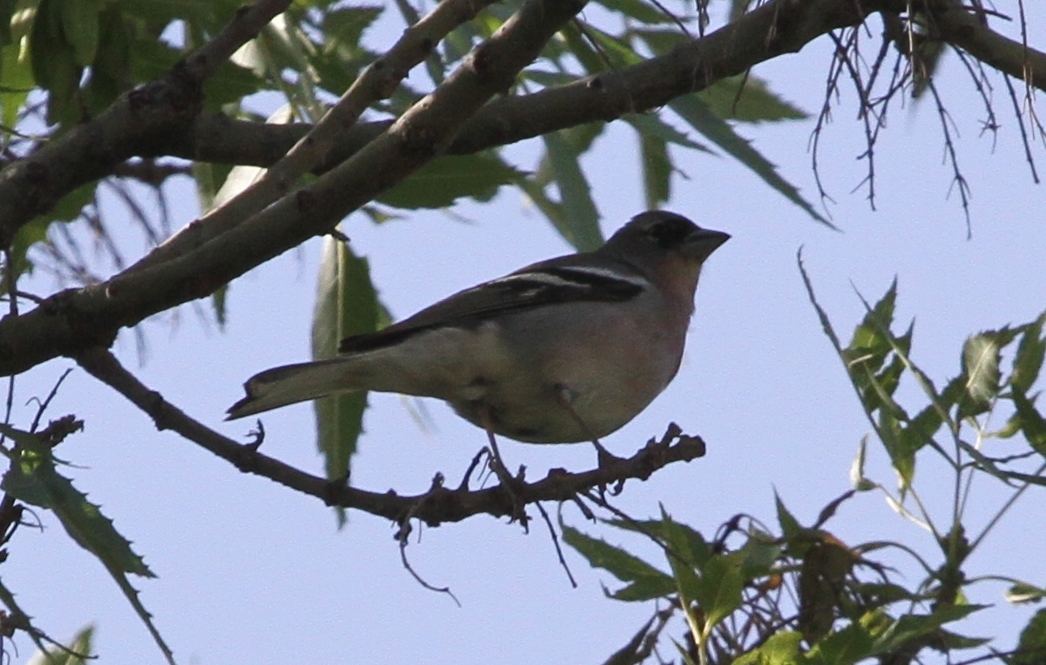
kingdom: Animalia
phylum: Chordata
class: Aves
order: Passeriformes
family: Fringillidae
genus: Fringilla
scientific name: Fringilla spodiogenys
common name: African chaffinch
